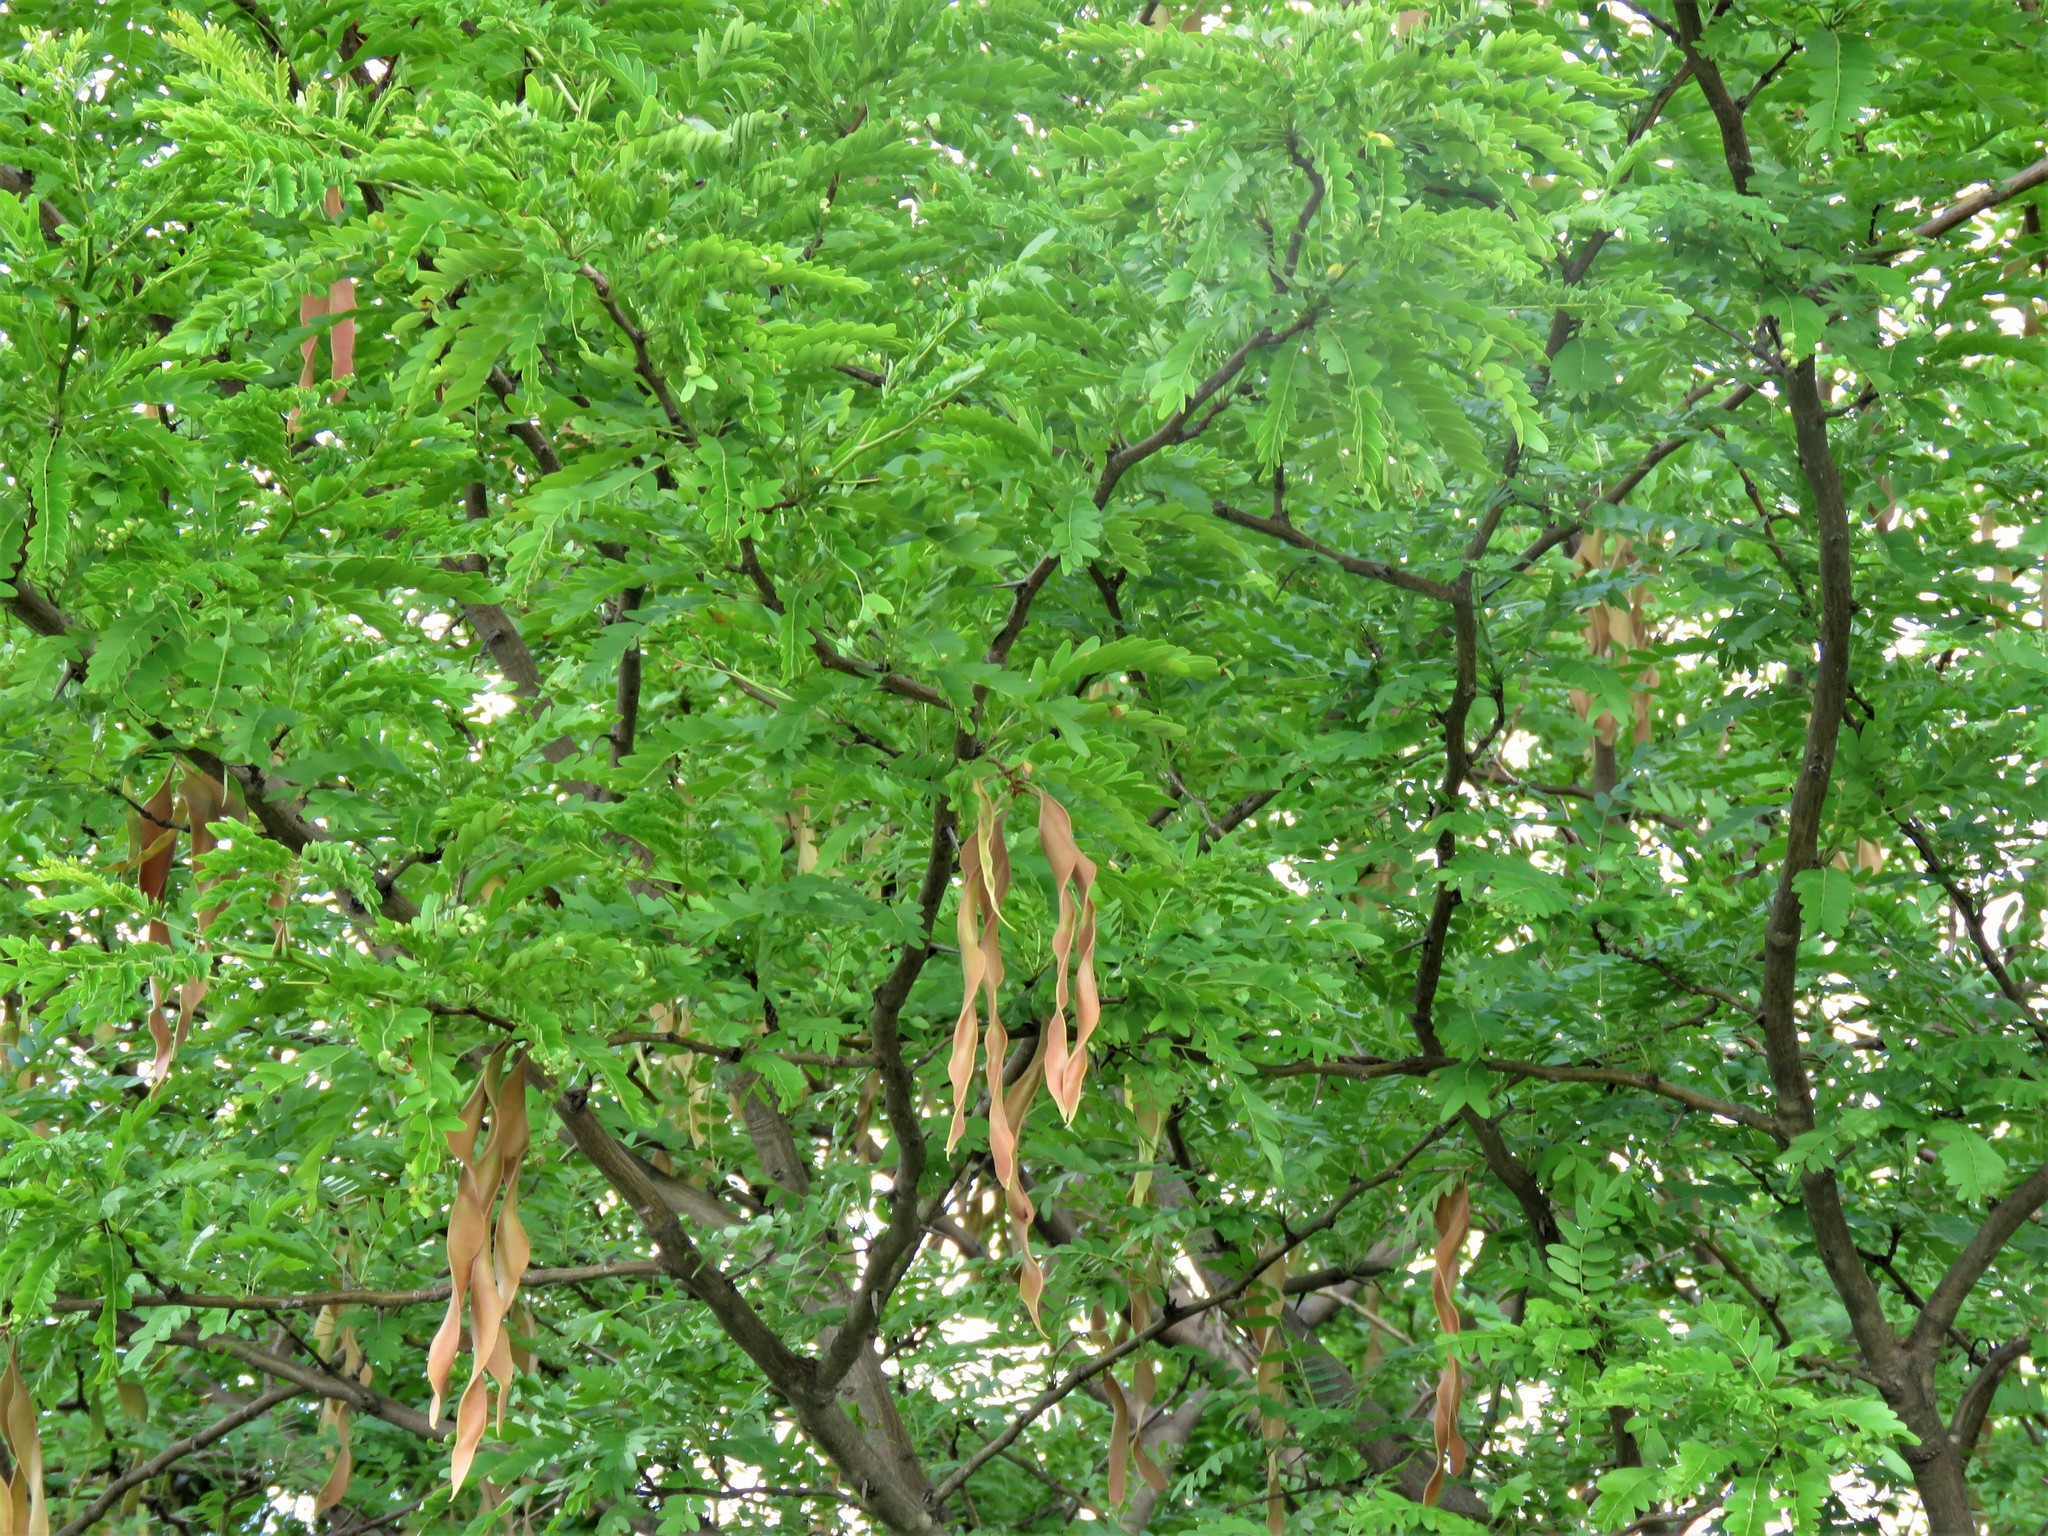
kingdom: Plantae
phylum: Tracheophyta
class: Magnoliopsida
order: Fabales
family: Fabaceae
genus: Gleditsia
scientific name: Gleditsia triacanthos
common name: Common honeylocust
